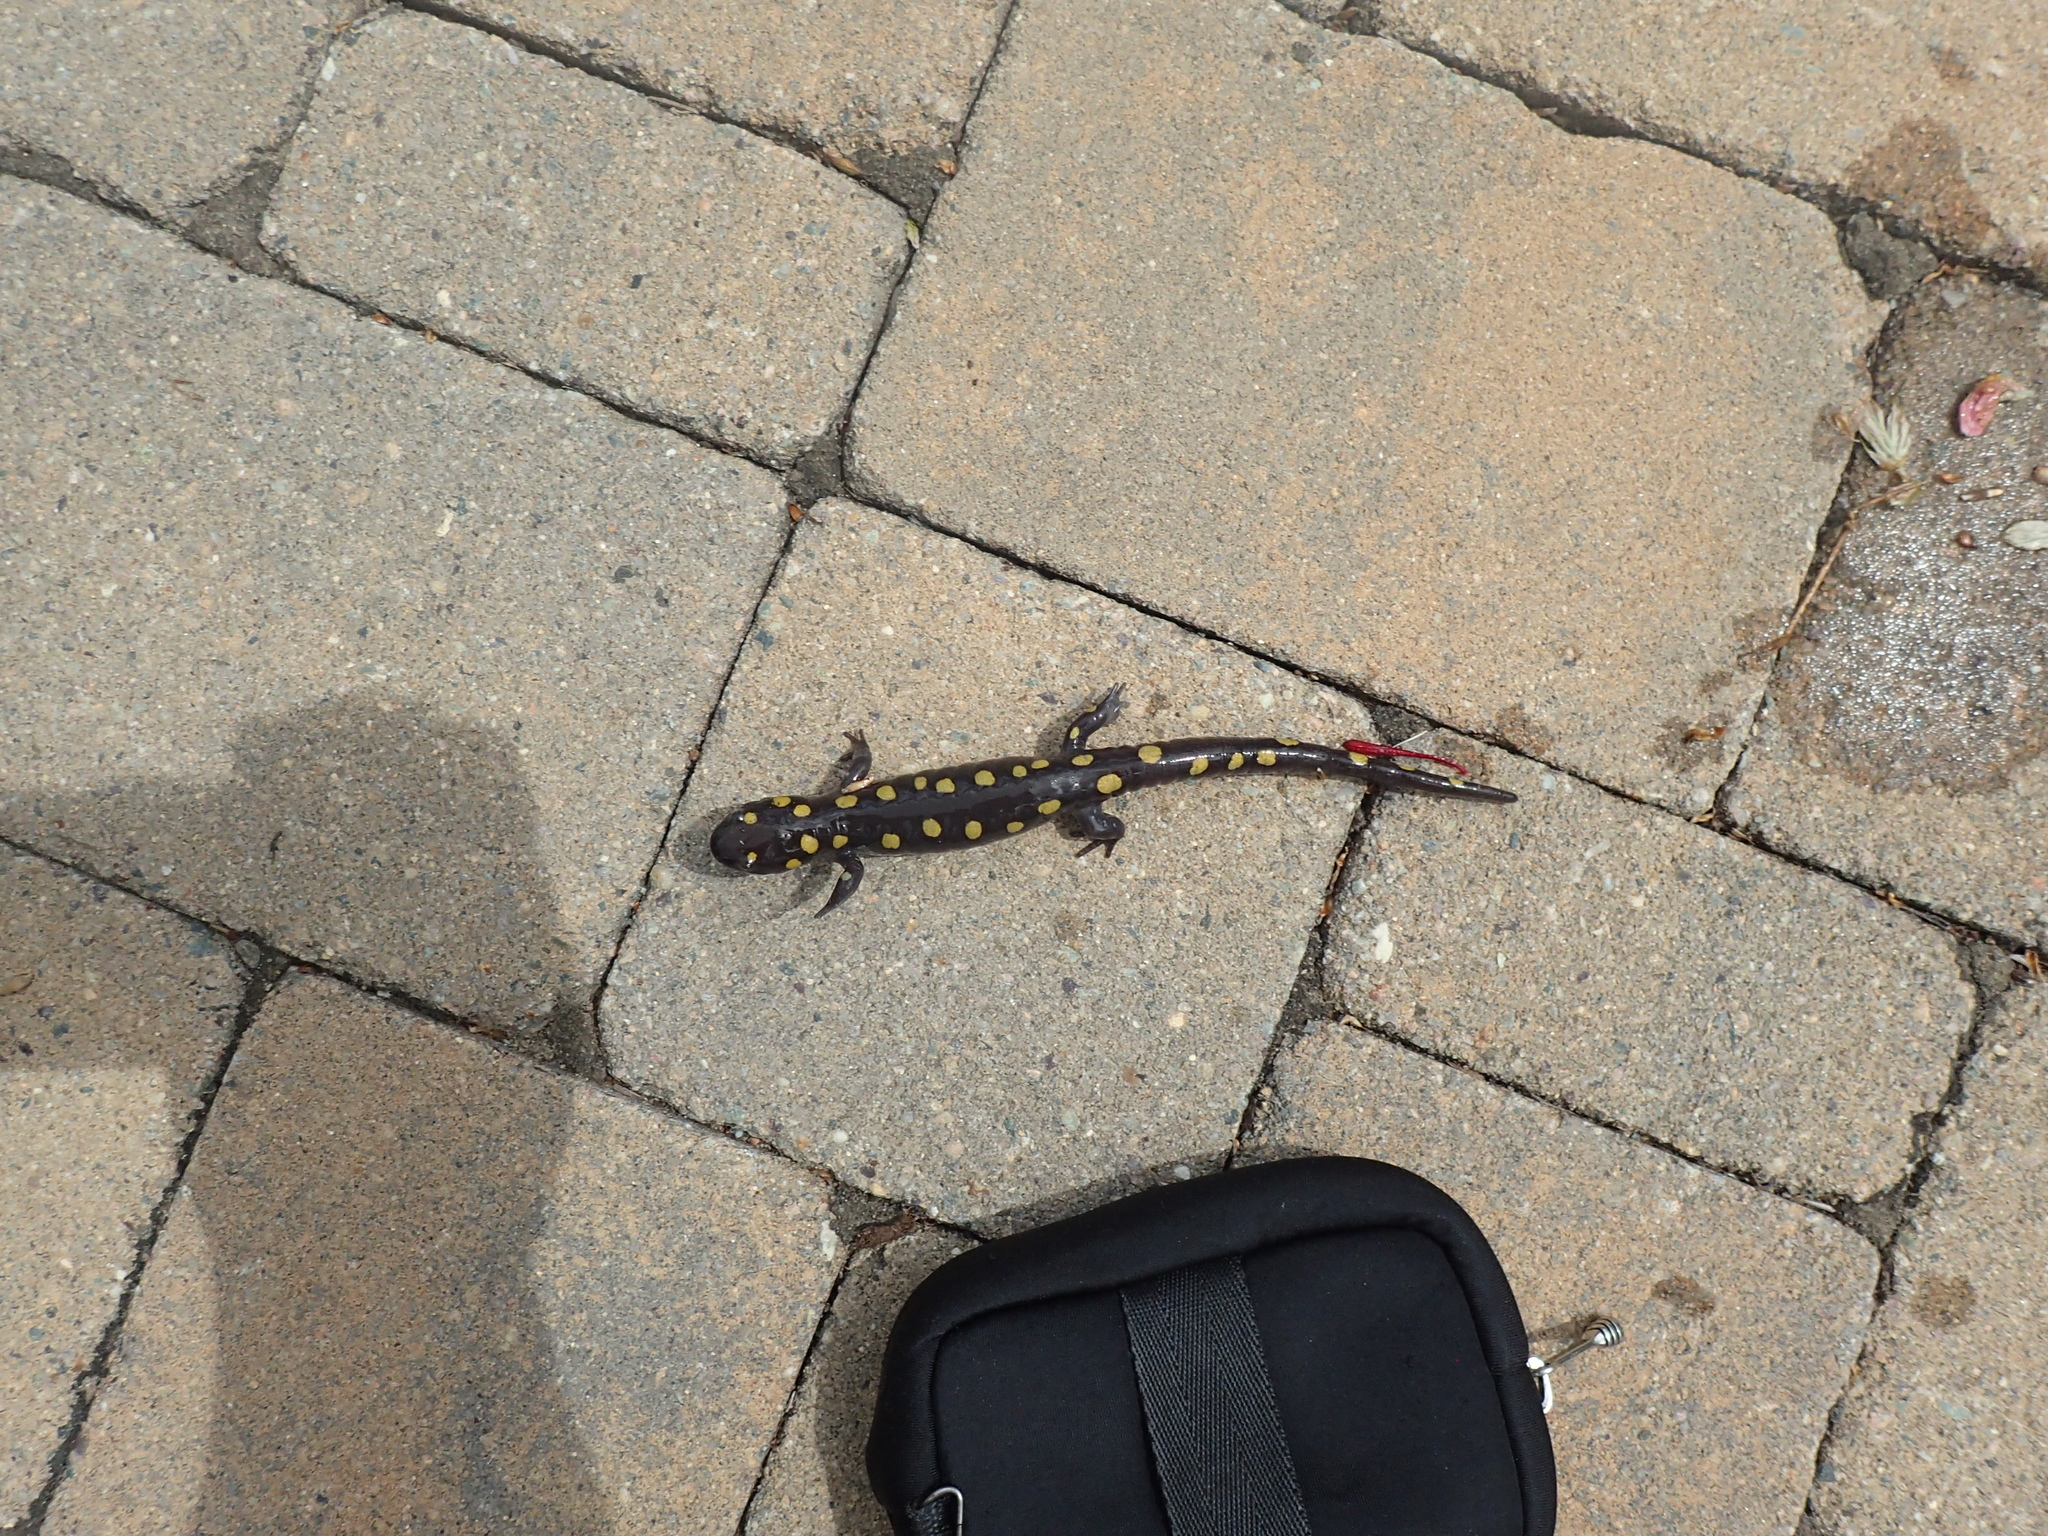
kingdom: Animalia
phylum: Chordata
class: Amphibia
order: Caudata
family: Ambystomatidae
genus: Ambystoma
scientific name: Ambystoma maculatum
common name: Spotted salamander
